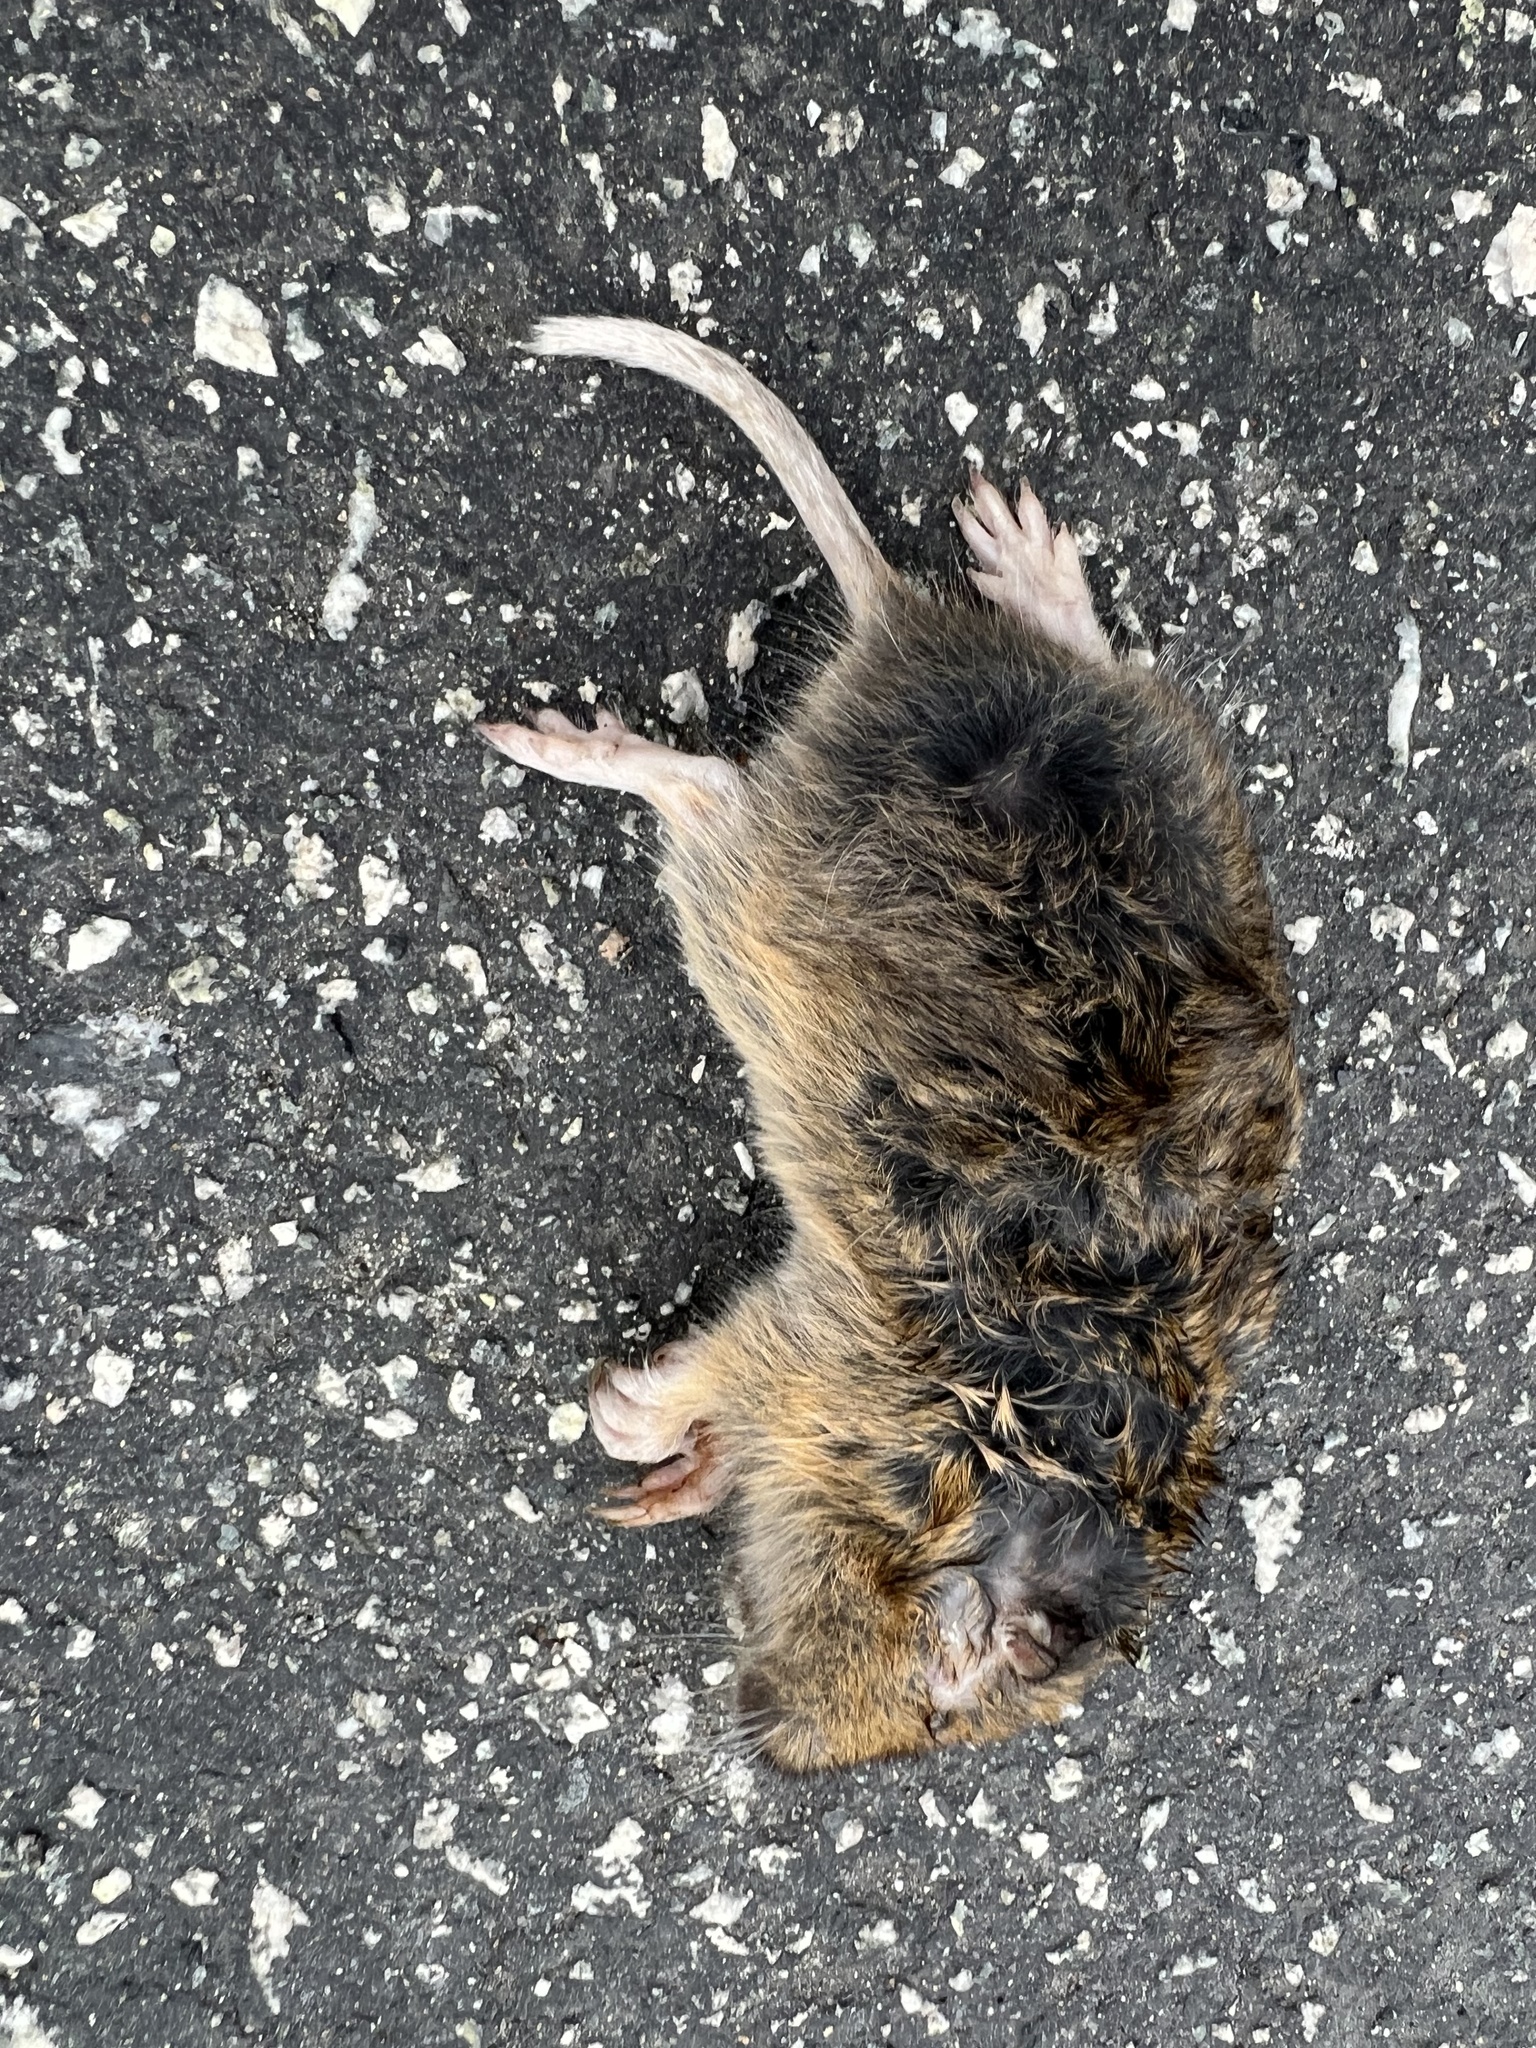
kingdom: Animalia
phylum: Chordata
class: Mammalia
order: Rodentia
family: Geomyidae
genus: Thomomys
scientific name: Thomomys bottae
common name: Botta's pocket gopher
